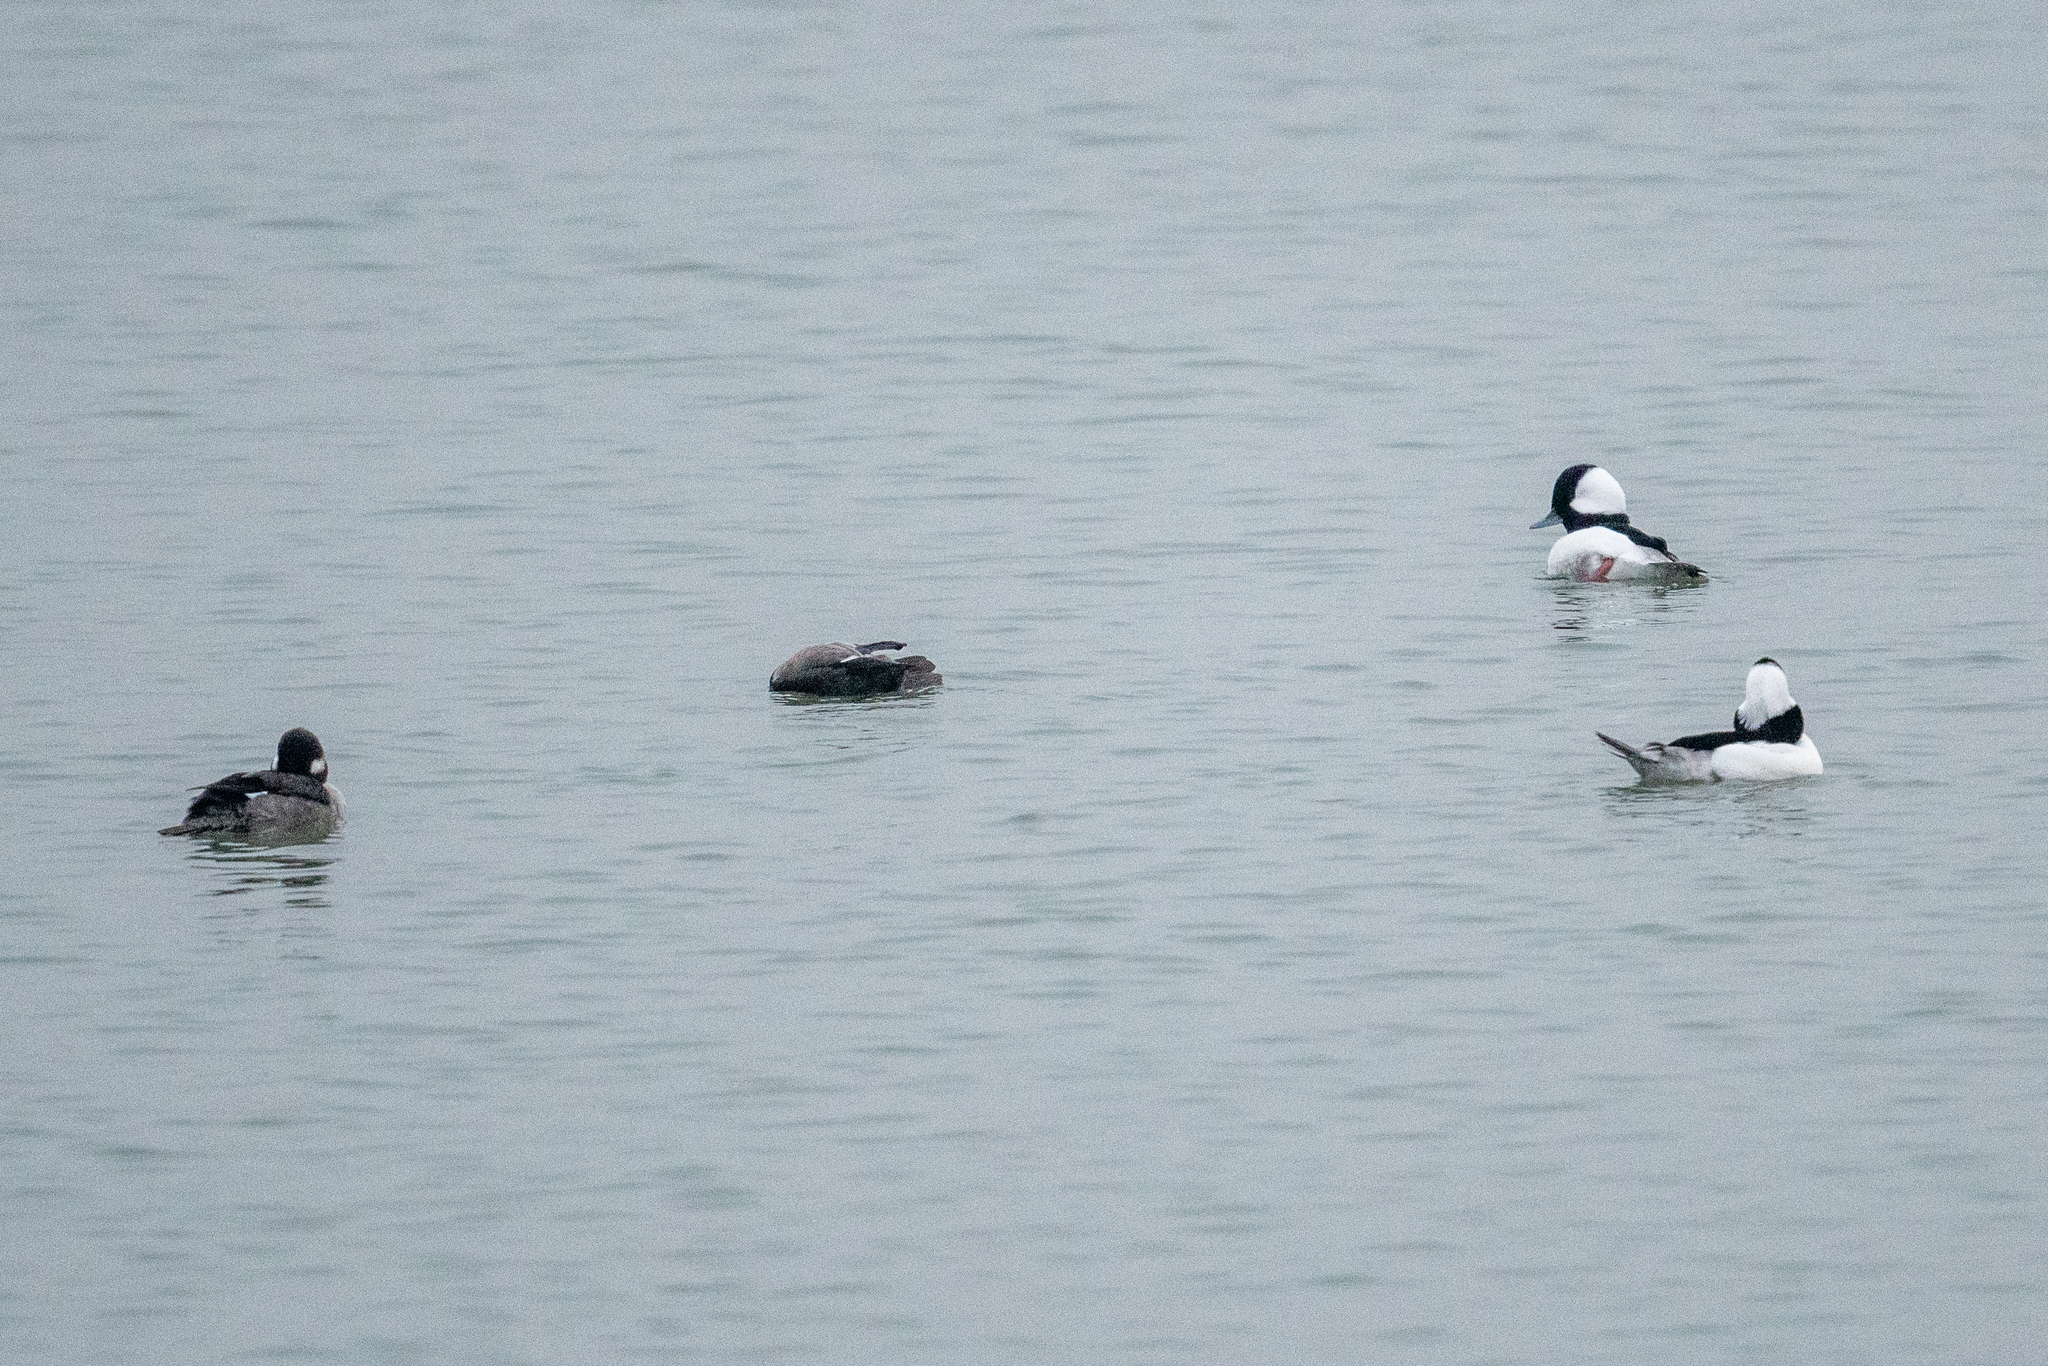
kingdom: Animalia
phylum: Chordata
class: Aves
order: Anseriformes
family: Anatidae
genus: Bucephala
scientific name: Bucephala albeola
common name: Bufflehead
